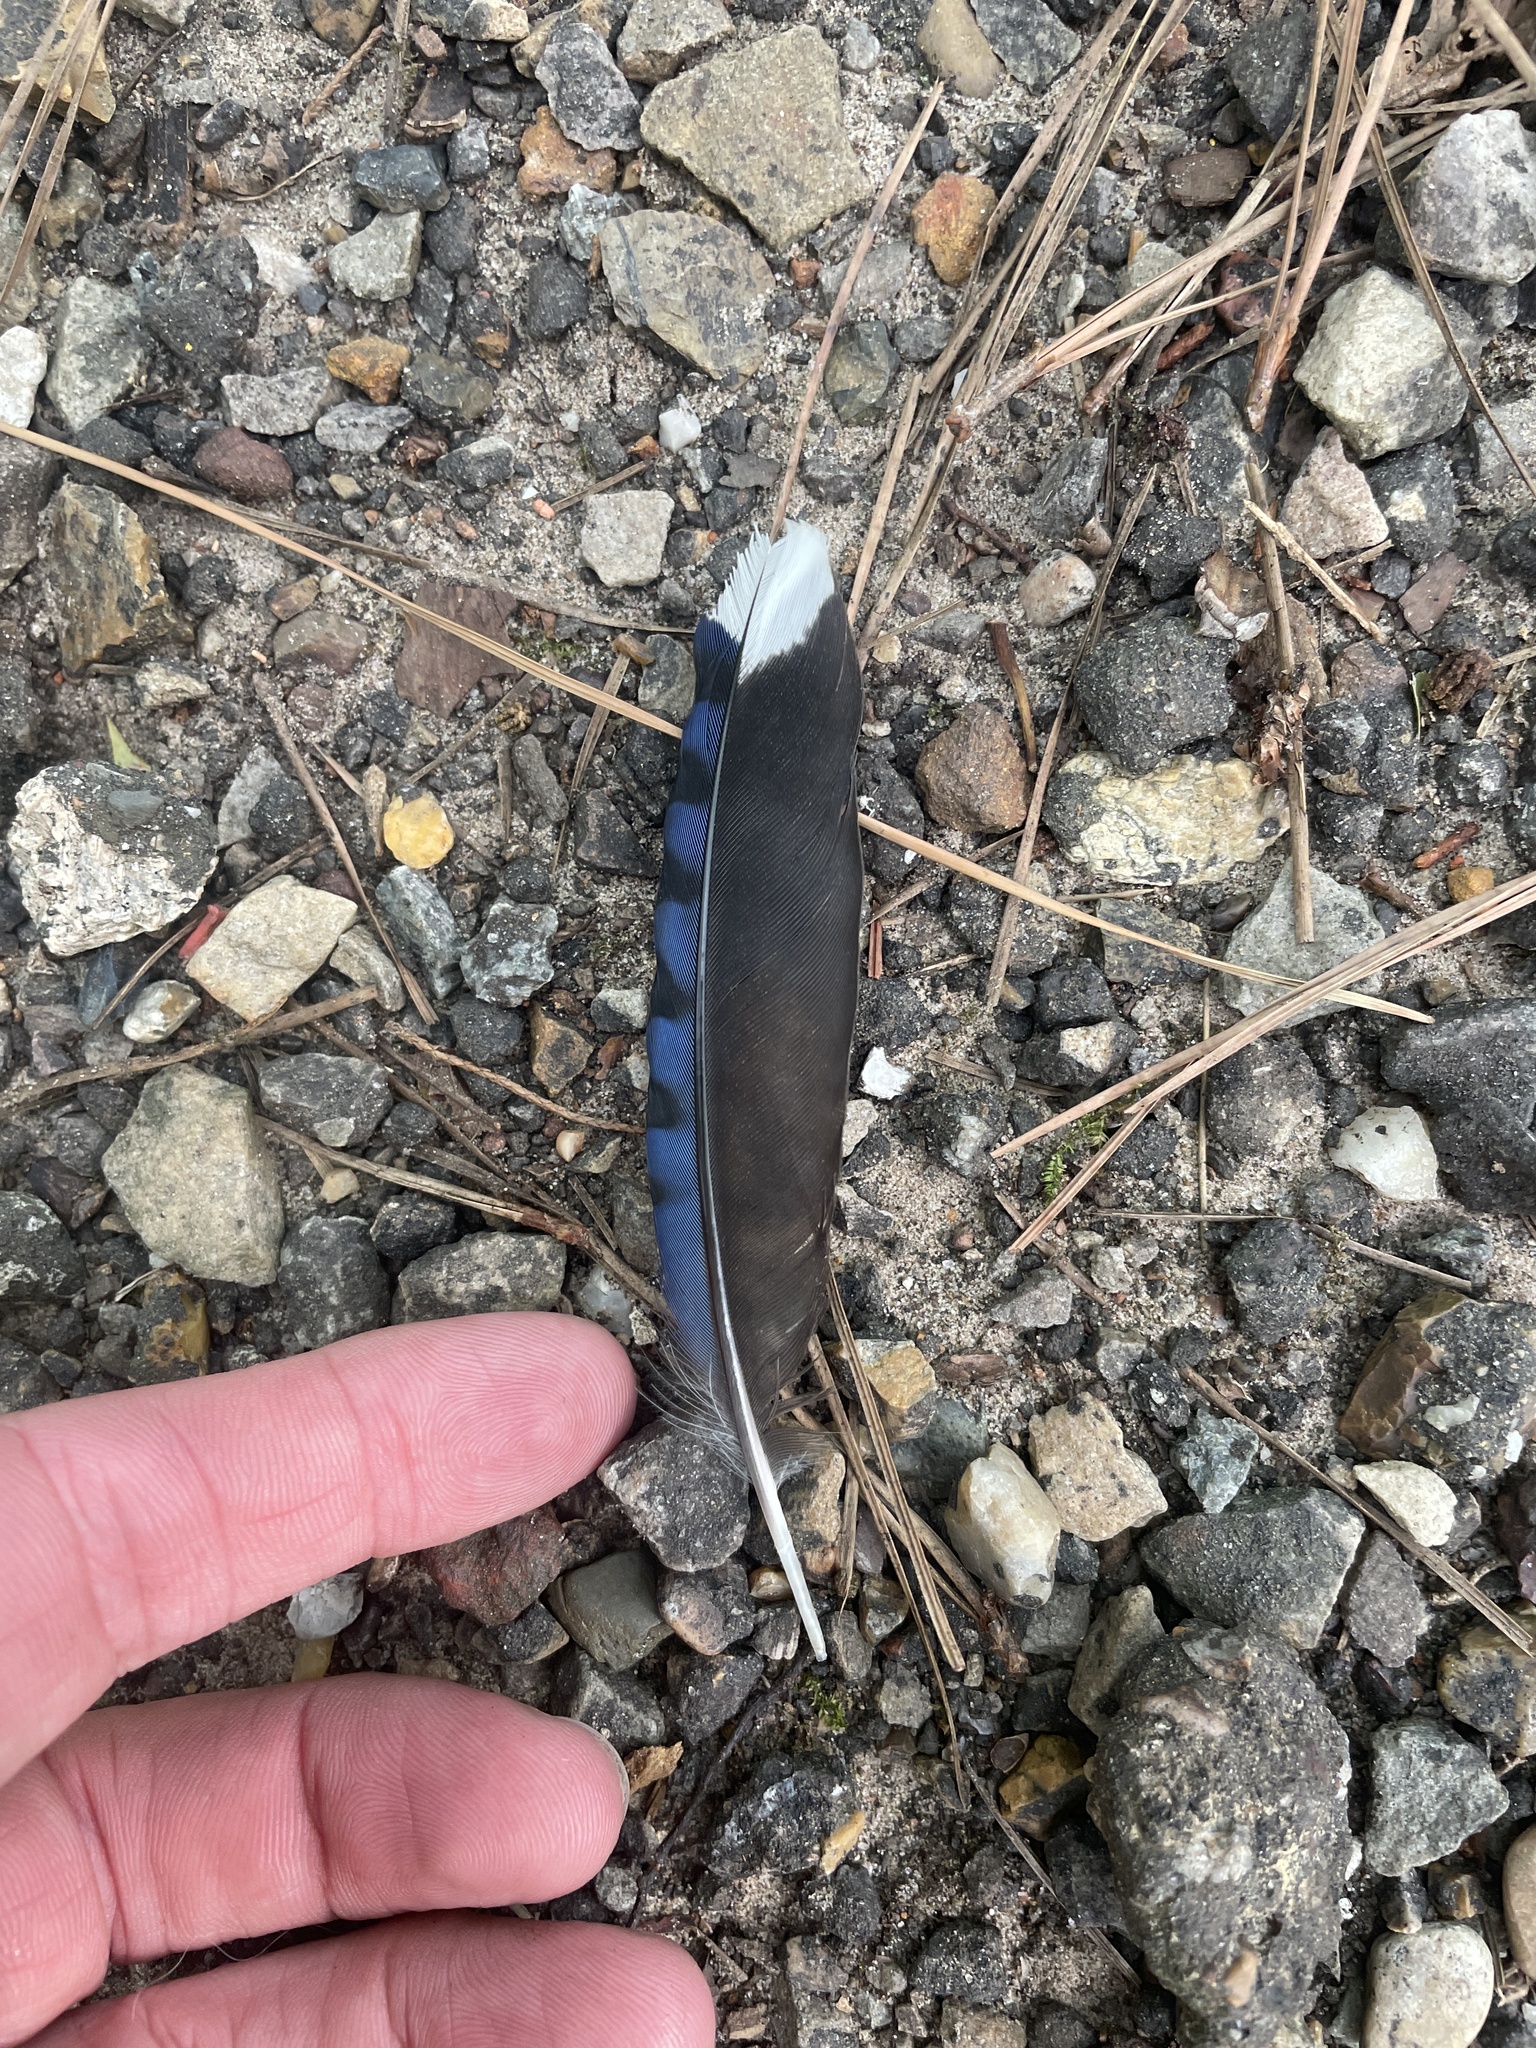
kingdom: Animalia
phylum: Chordata
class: Aves
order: Passeriformes
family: Corvidae
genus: Cyanocitta
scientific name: Cyanocitta cristata
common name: Blue jay
